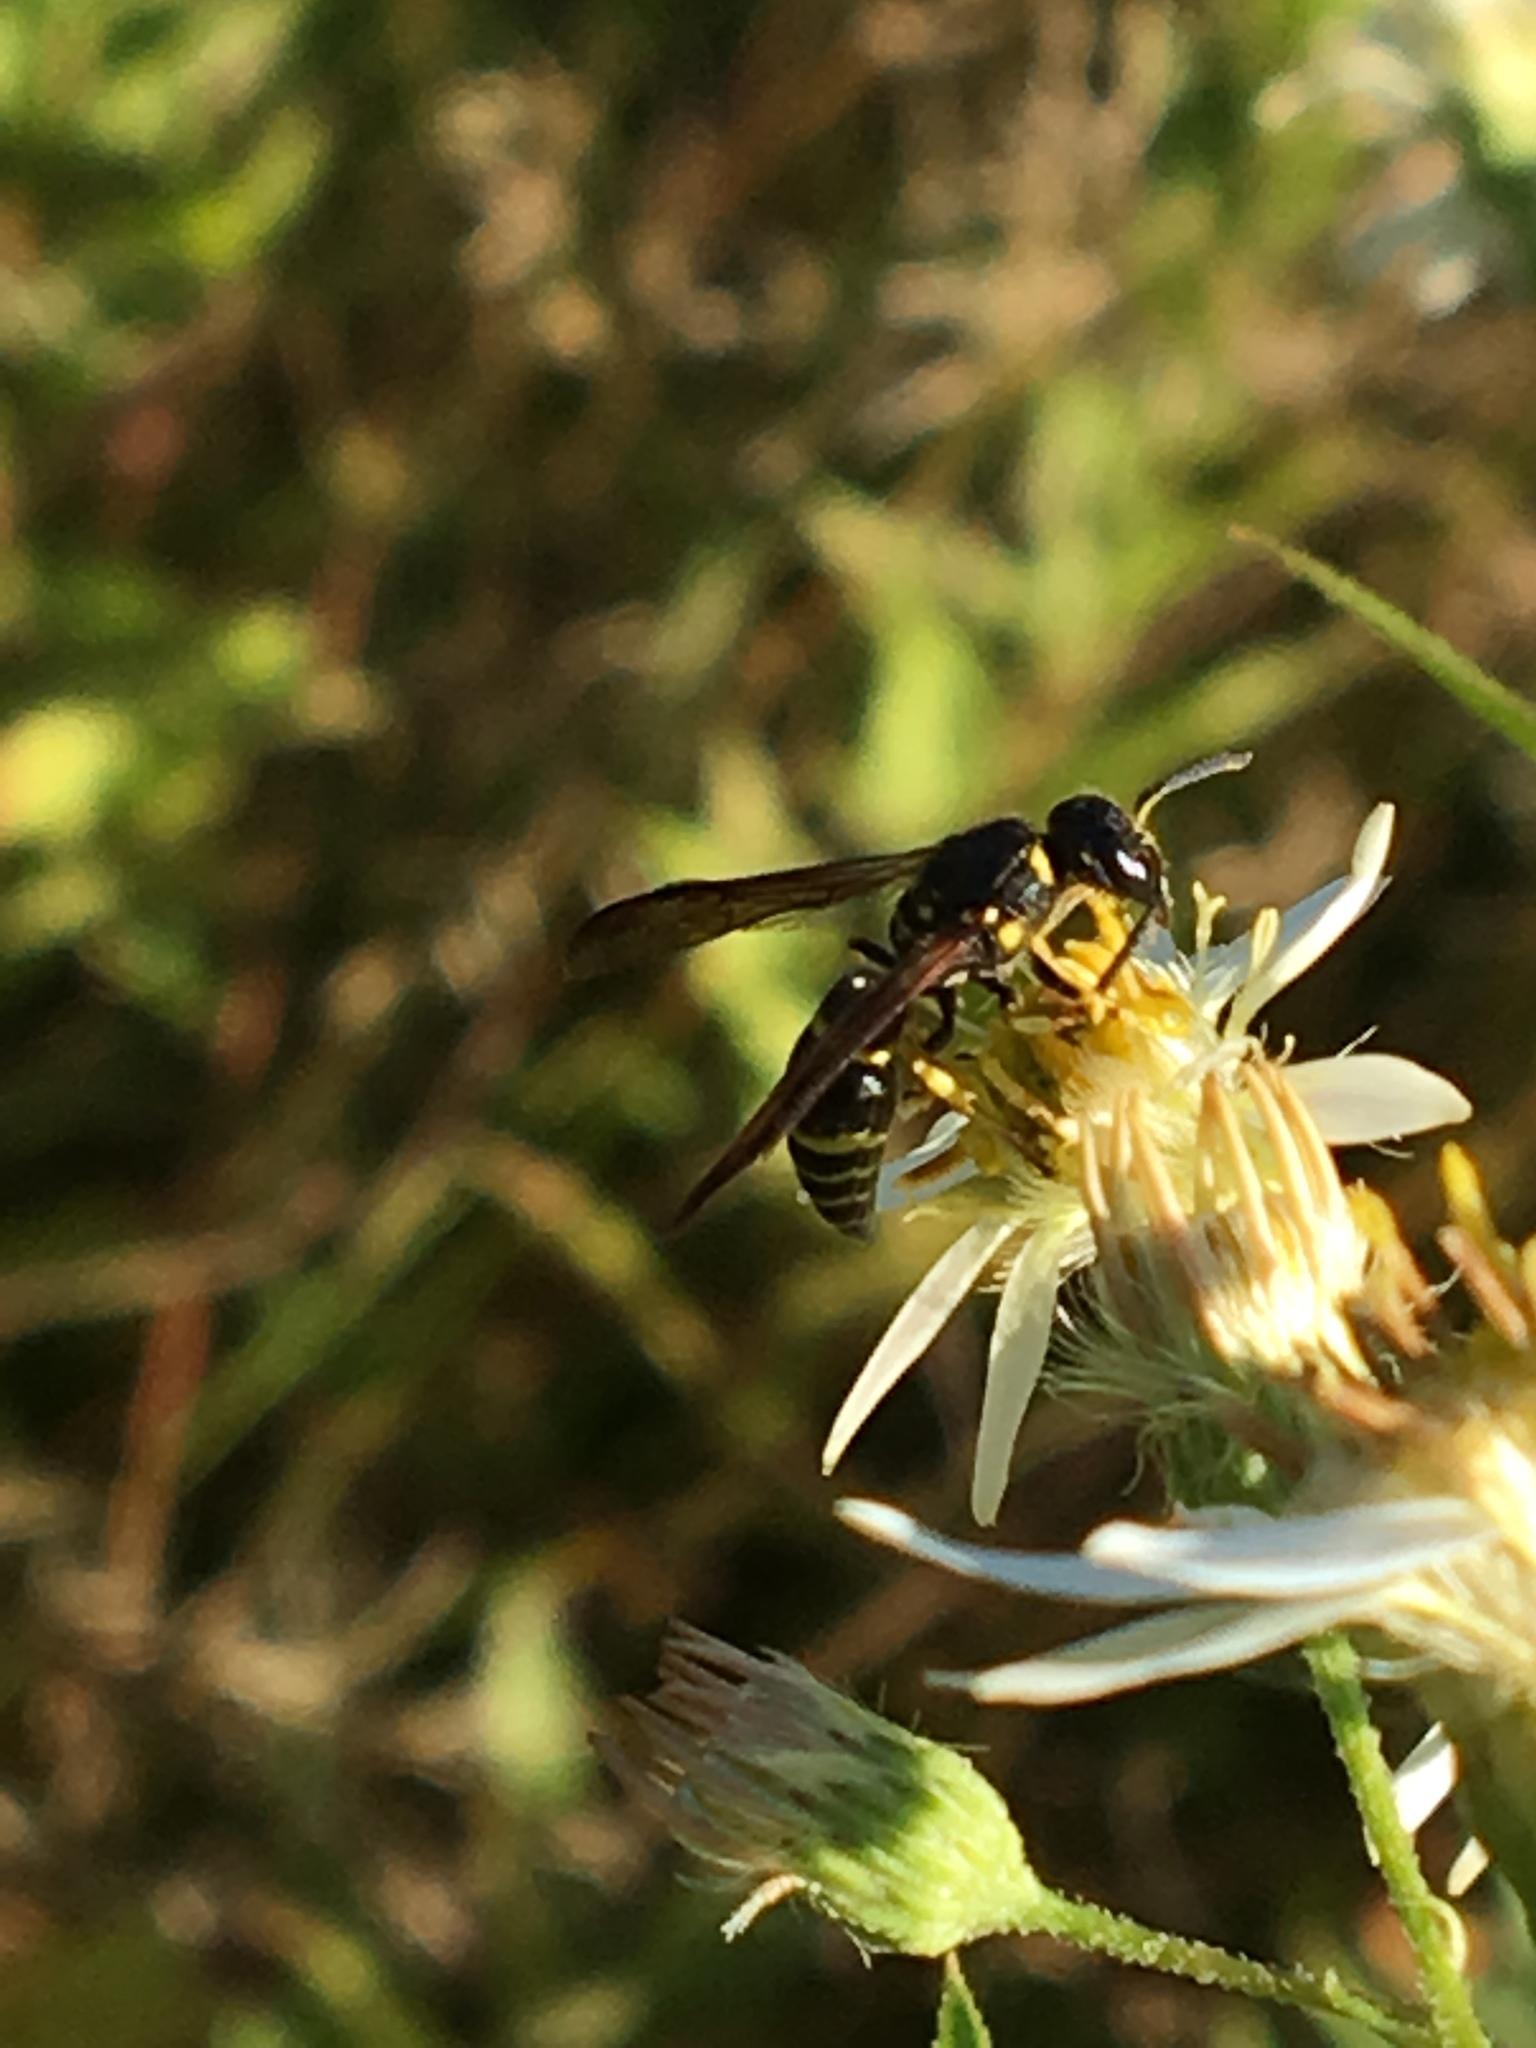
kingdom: Animalia
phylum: Arthropoda
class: Insecta
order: Hymenoptera
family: Vespidae
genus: Ancistrocerus
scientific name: Ancistrocerus
